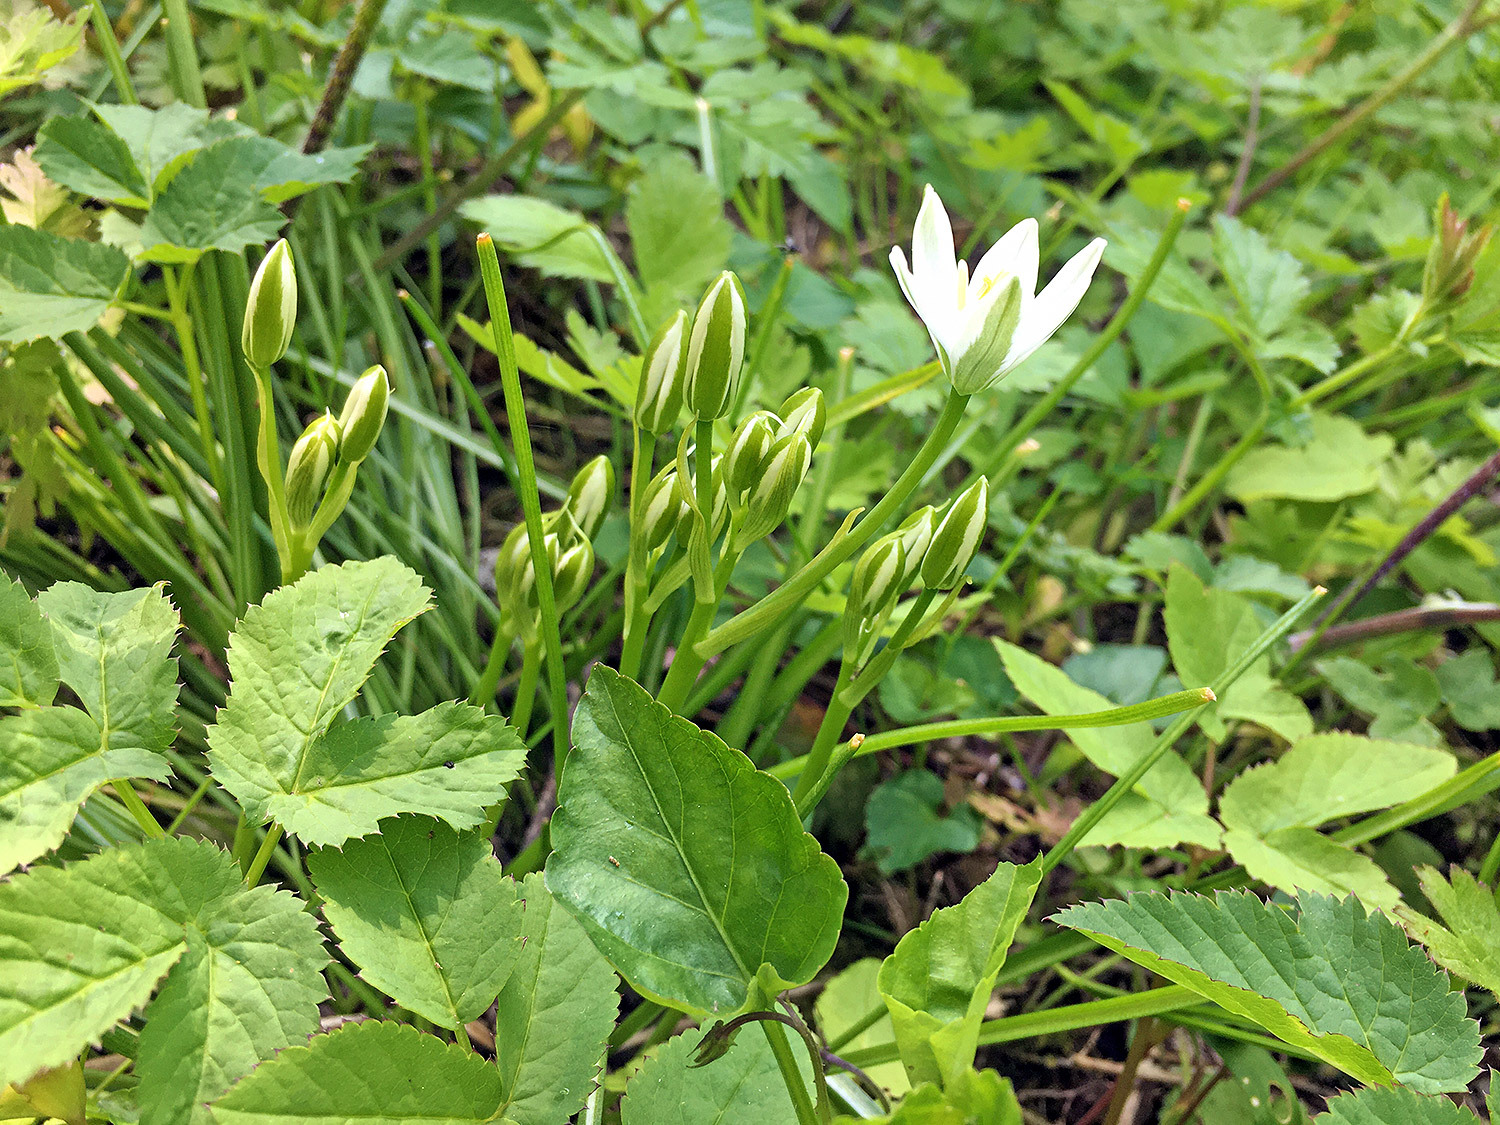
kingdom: Plantae
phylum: Tracheophyta
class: Liliopsida
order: Asparagales
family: Asparagaceae
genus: Ornithogalum
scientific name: Ornithogalum umbellatum
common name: Garden star-of-bethlehem
